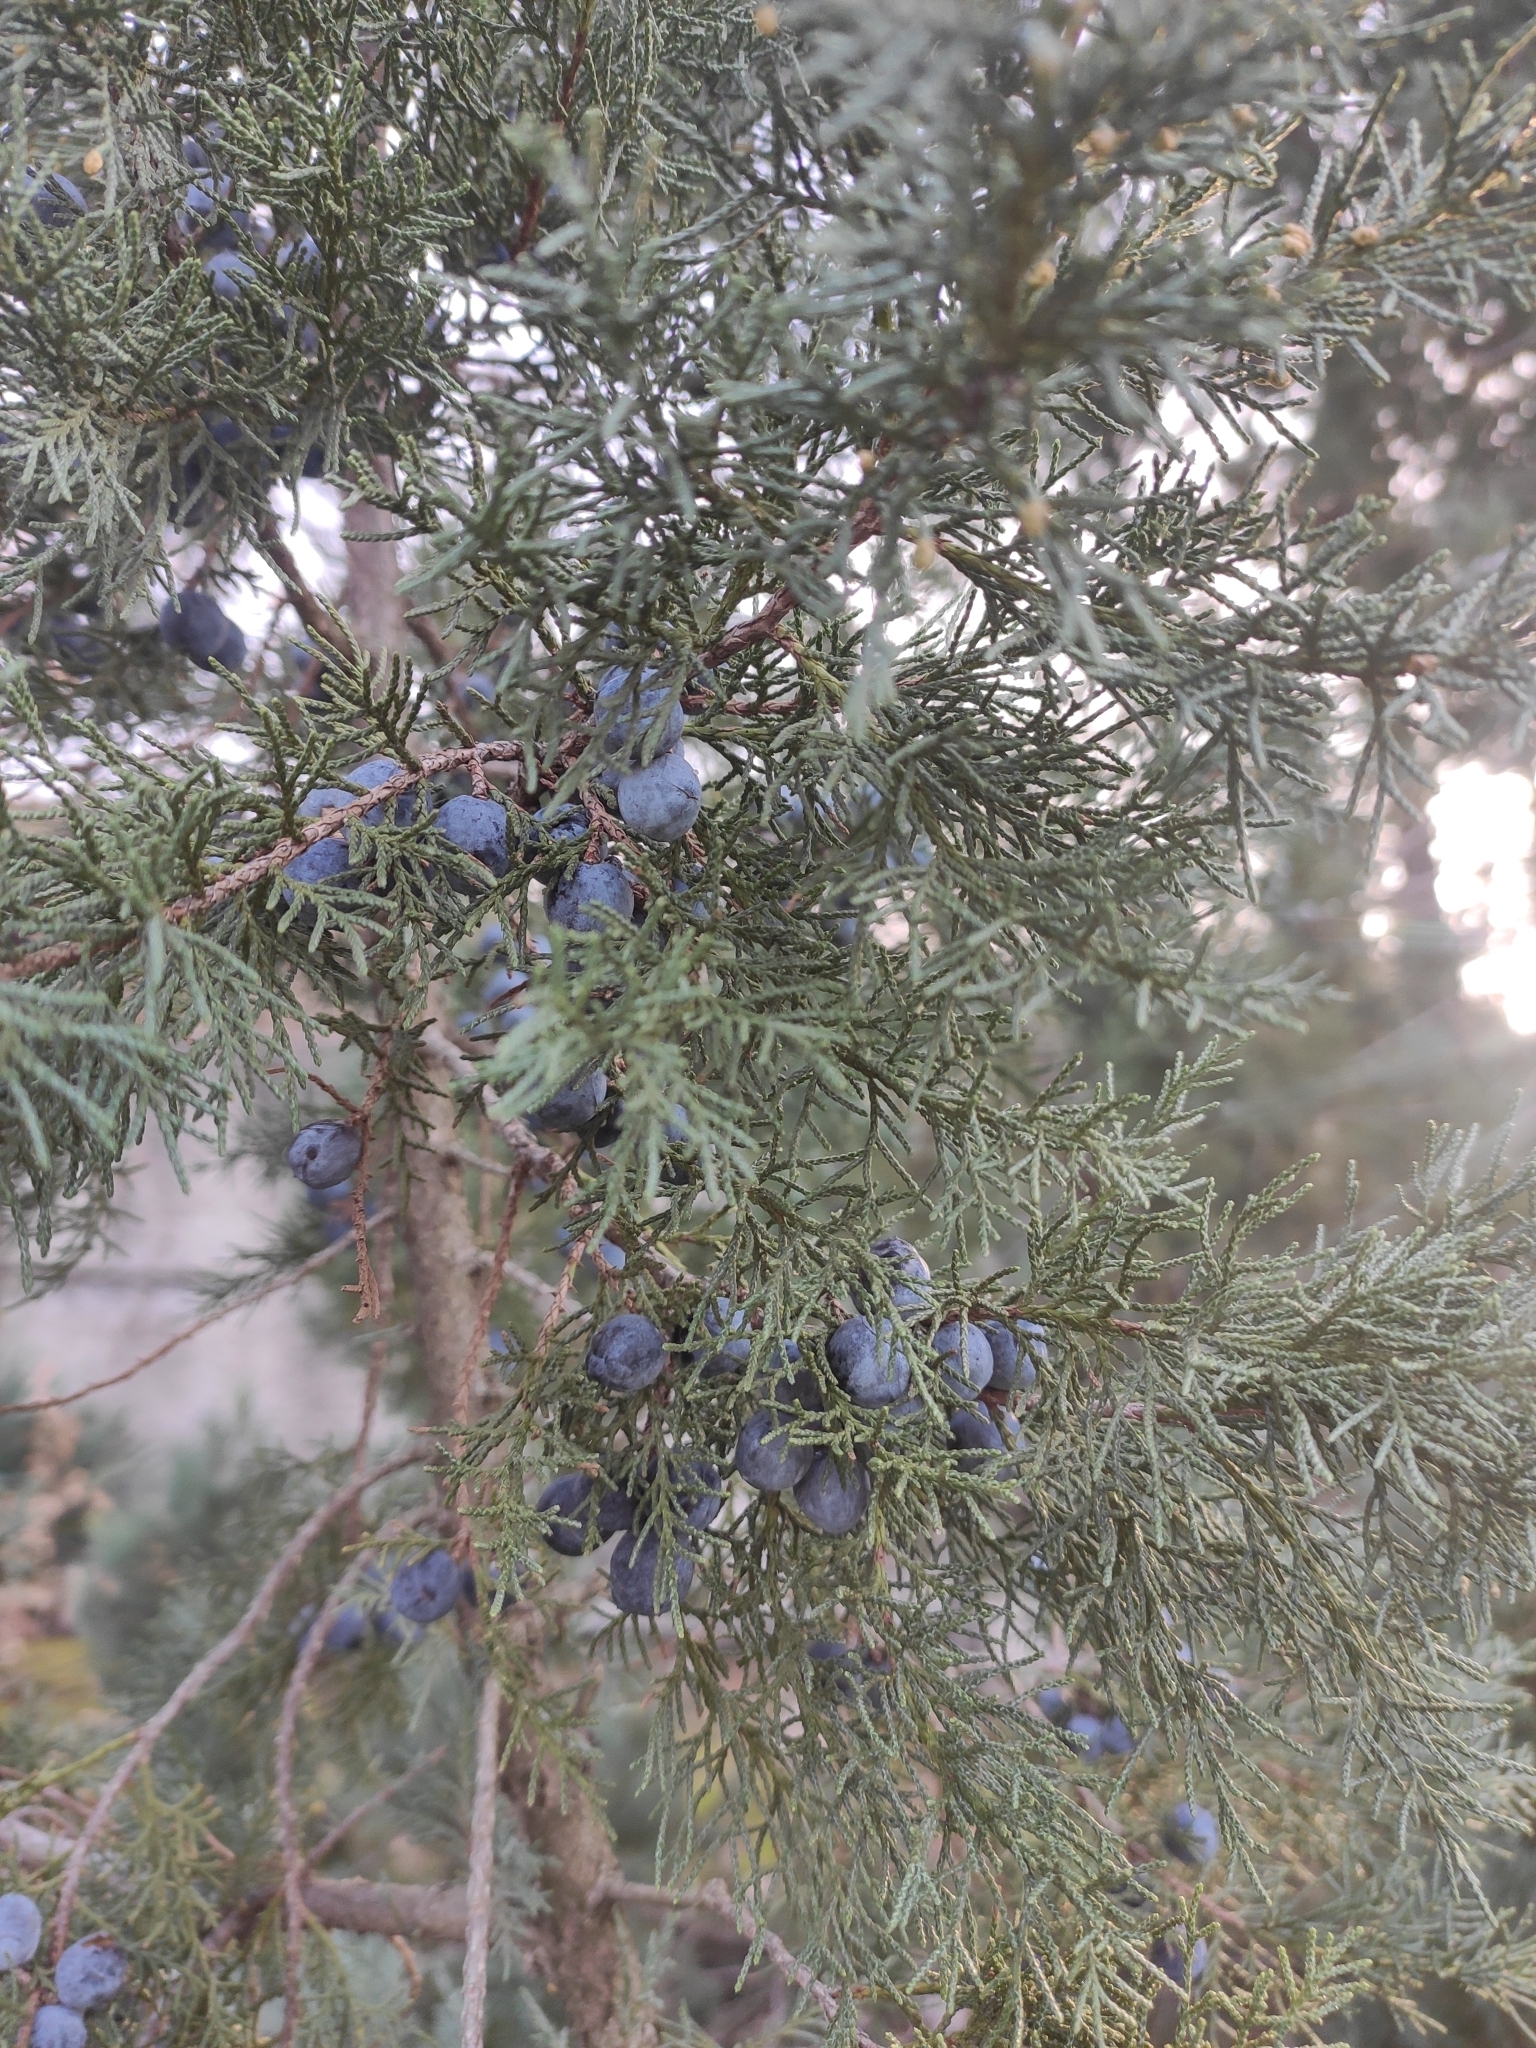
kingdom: Plantae
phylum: Tracheophyta
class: Pinopsida
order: Pinales
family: Cupressaceae
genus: Juniperus
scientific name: Juniperus excelsa
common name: Crimean juniper
